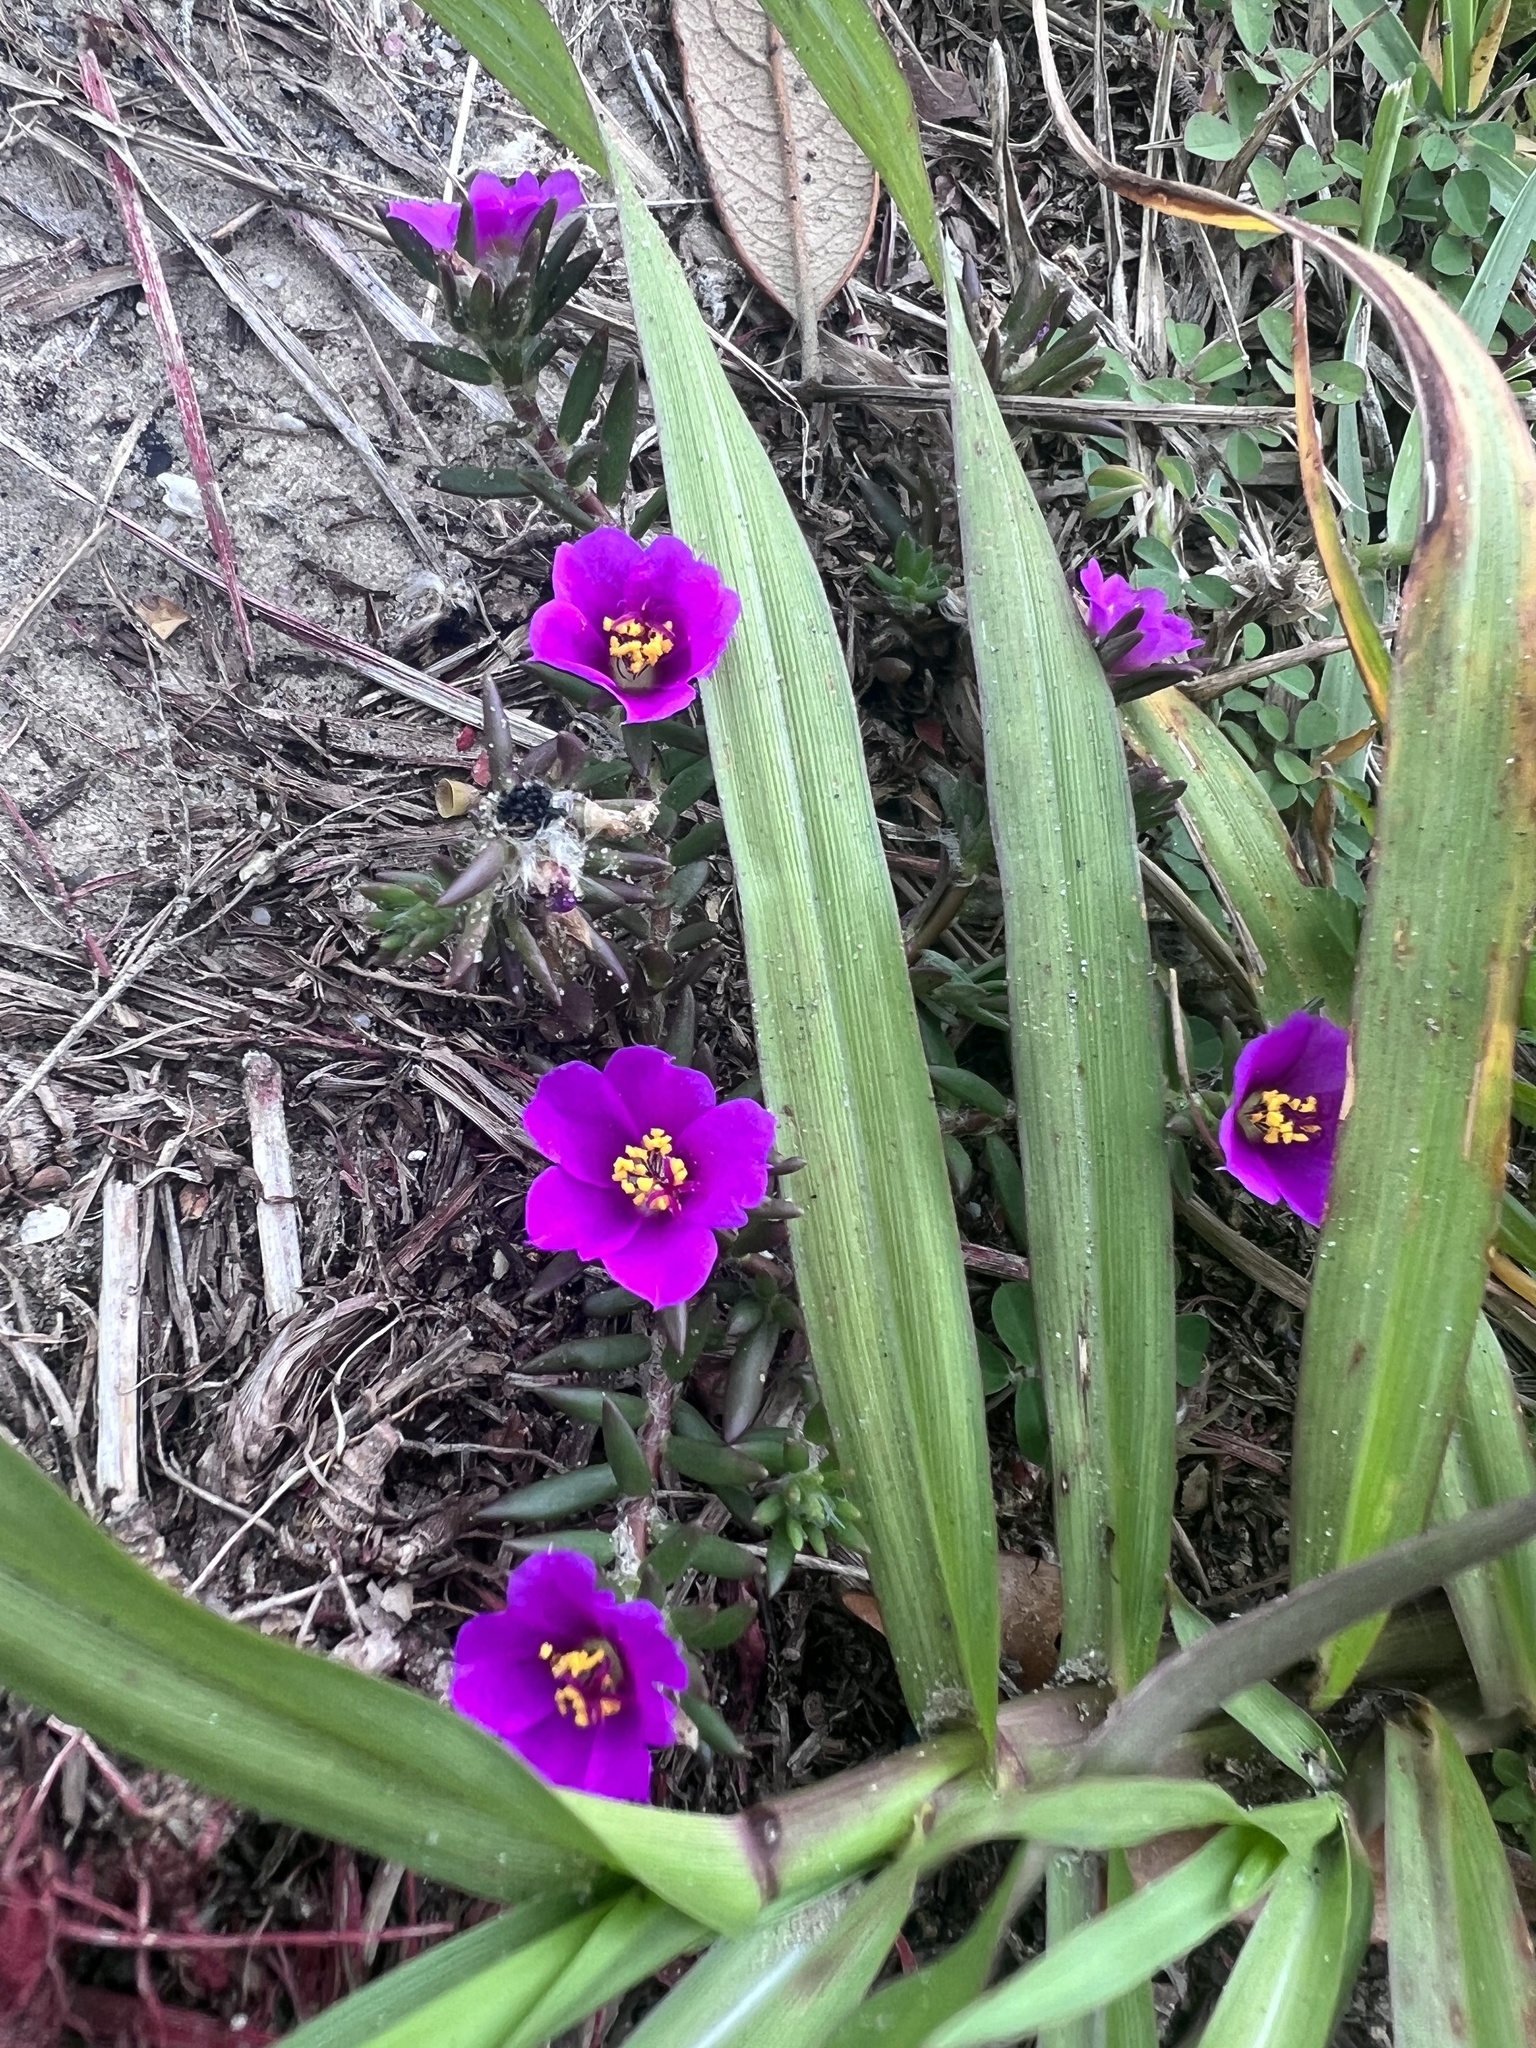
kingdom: Plantae
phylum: Tracheophyta
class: Magnoliopsida
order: Caryophyllales
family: Portulacaceae
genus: Portulaca
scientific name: Portulaca pilosa
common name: Kiss me quick
